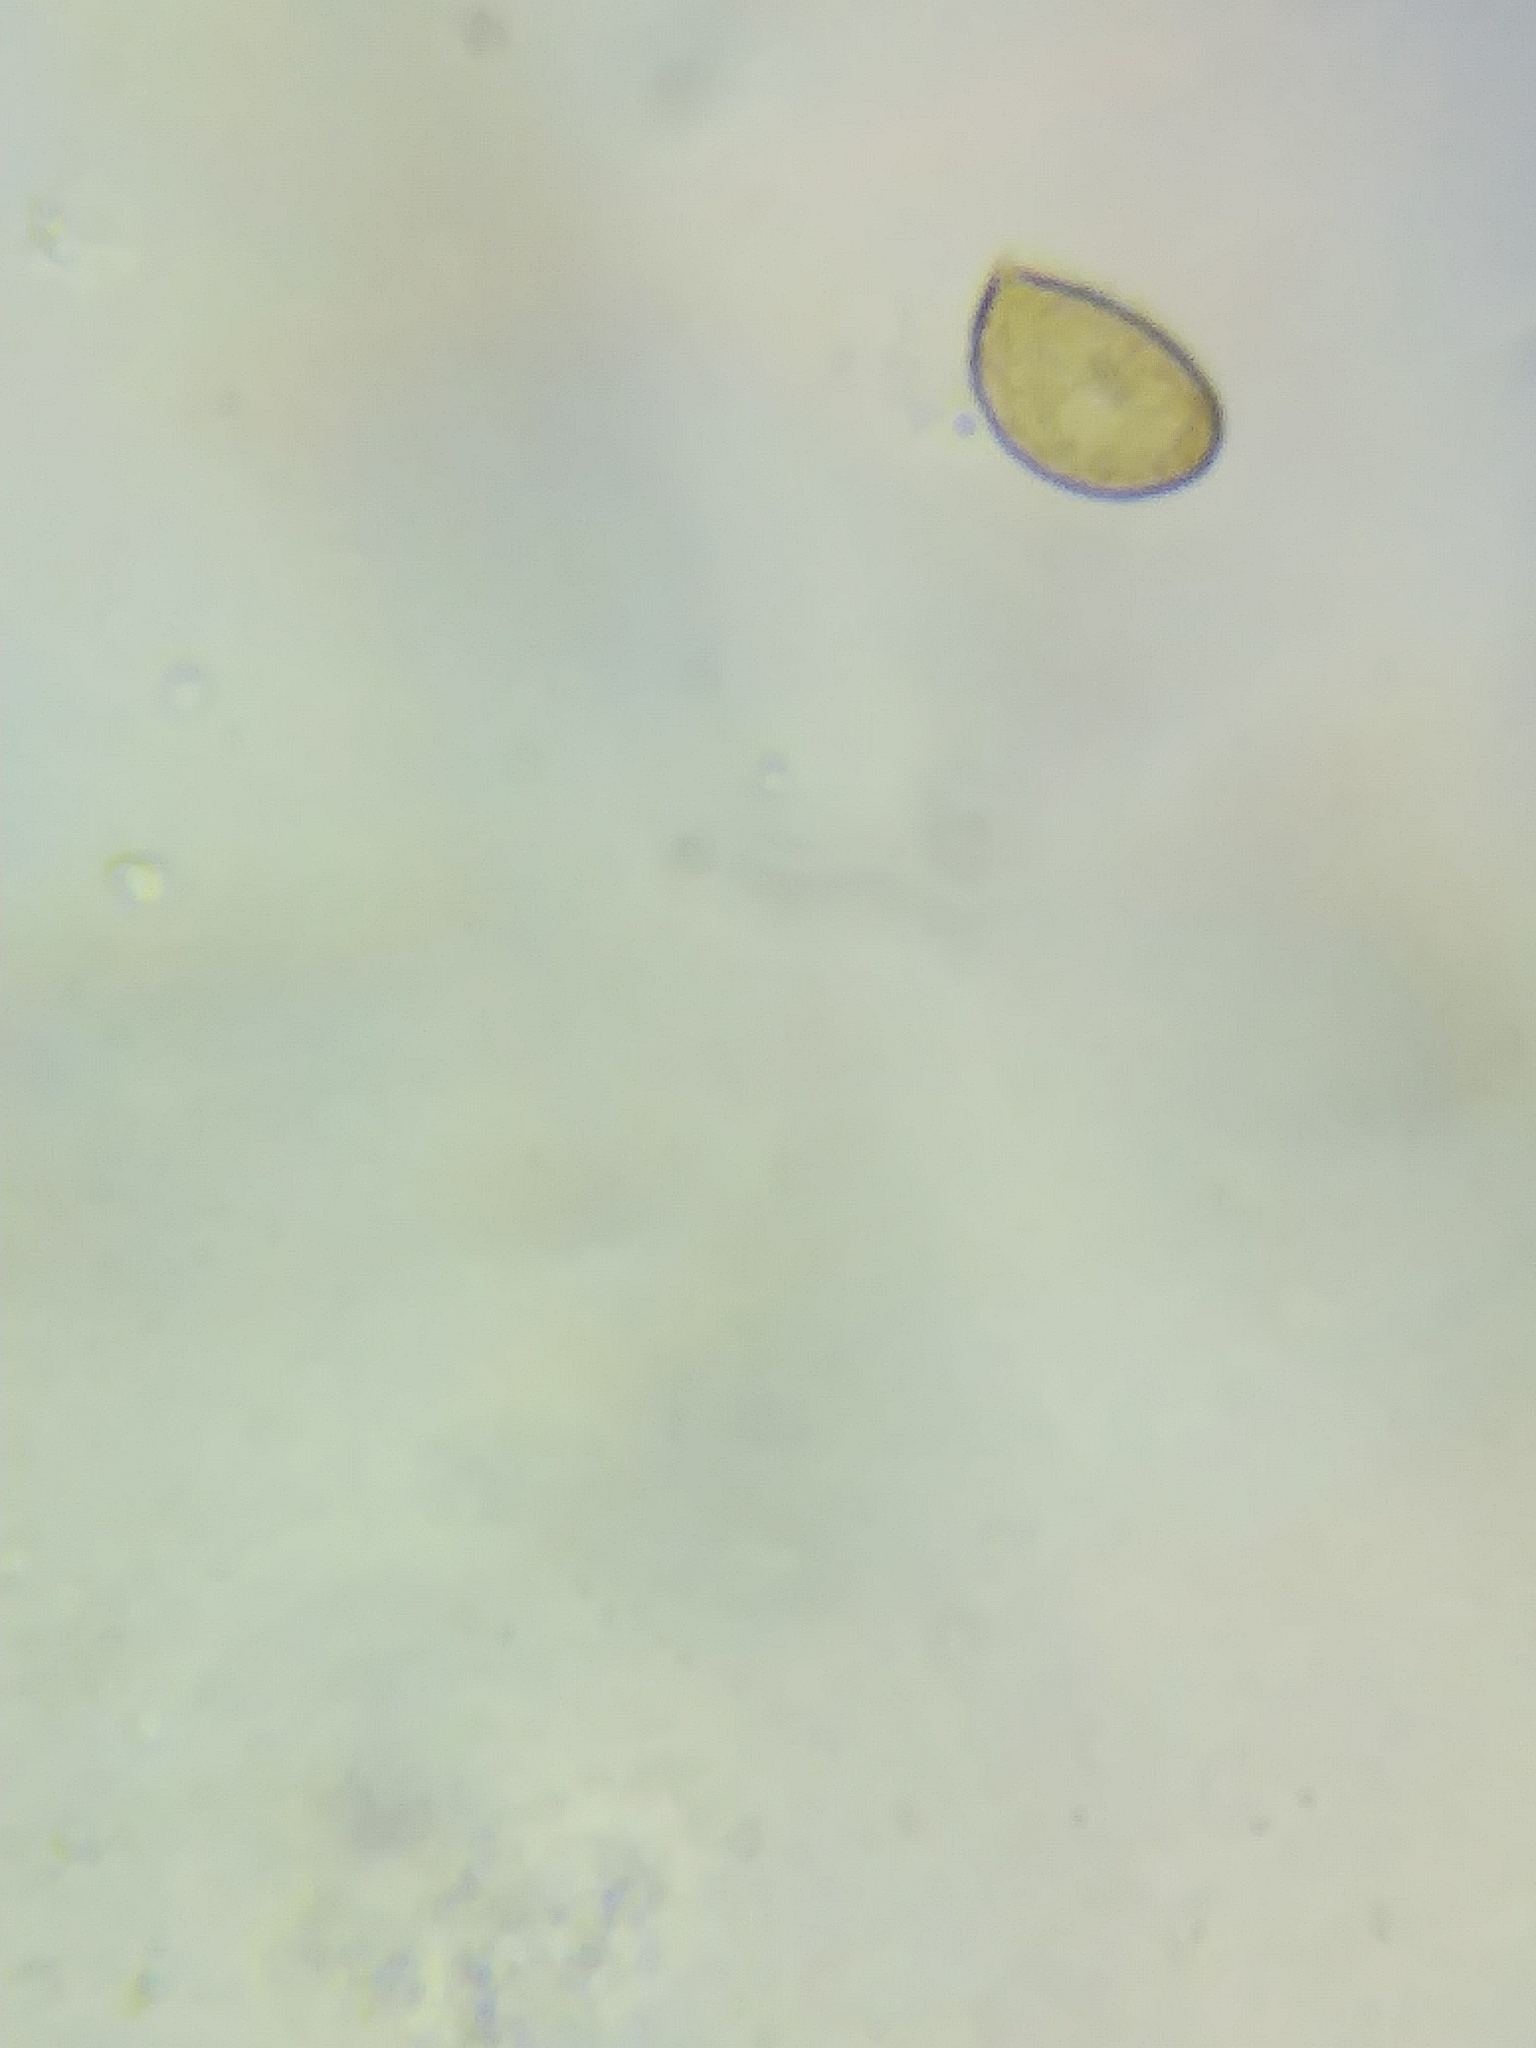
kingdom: Fungi
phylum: Basidiomycota
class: Agaricomycetes
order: Agaricales
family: Cortinariaceae
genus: Cortinarius
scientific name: Cortinarius alboviolaceus
